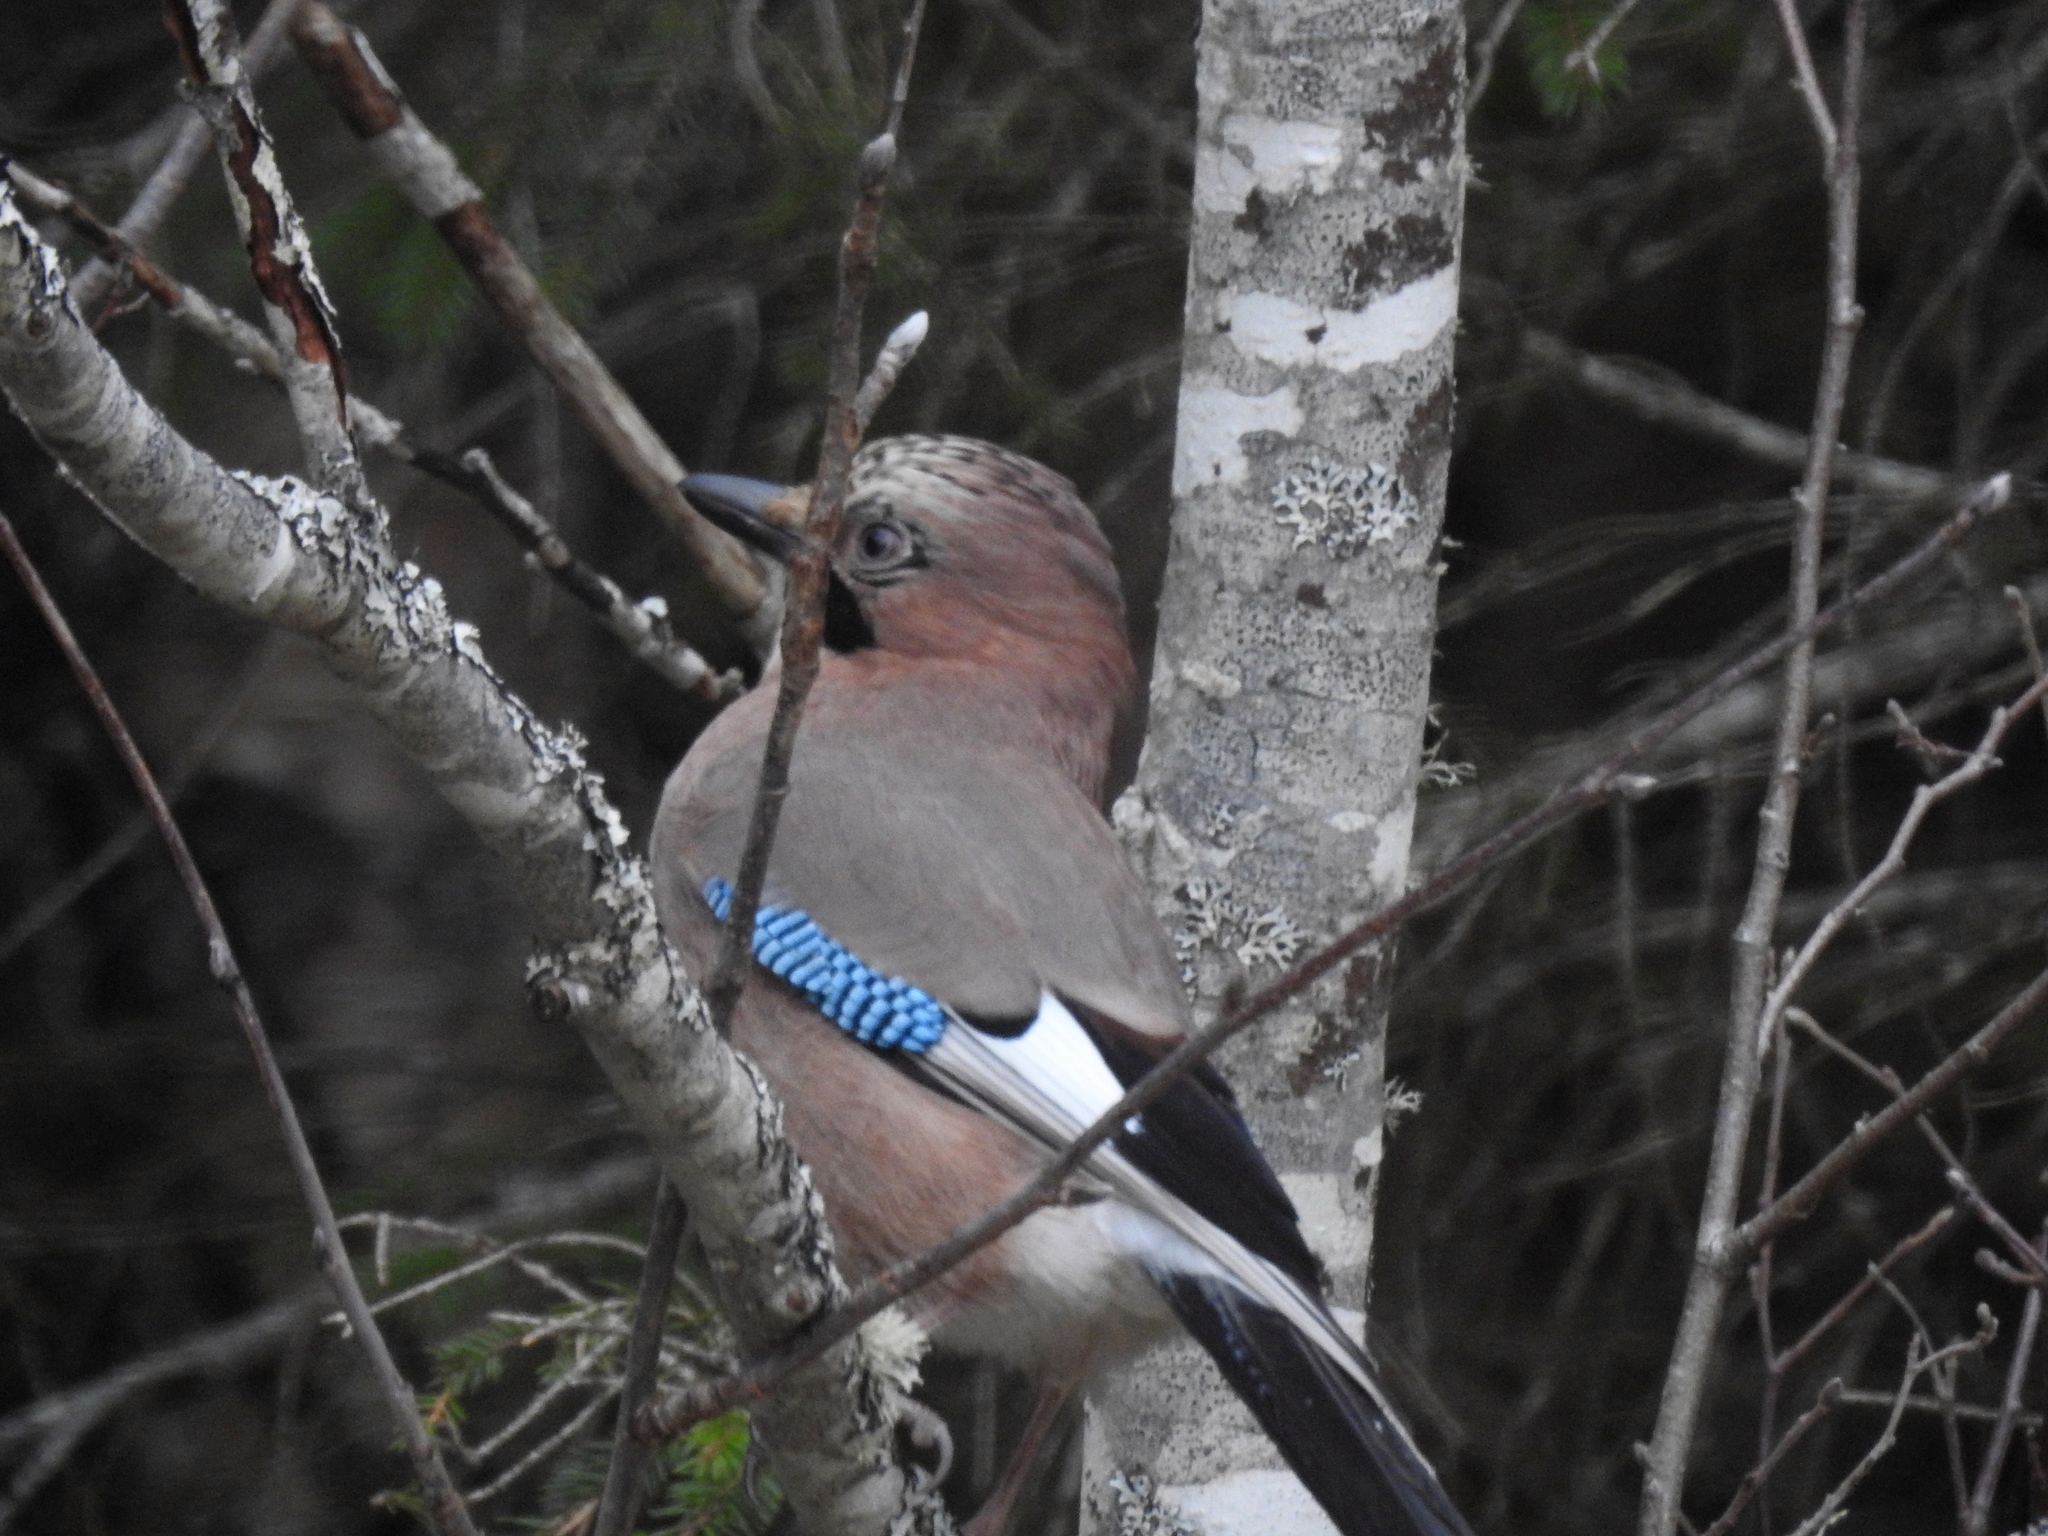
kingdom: Animalia
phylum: Chordata
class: Aves
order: Passeriformes
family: Corvidae
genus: Garrulus
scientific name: Garrulus glandarius
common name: Eurasian jay
